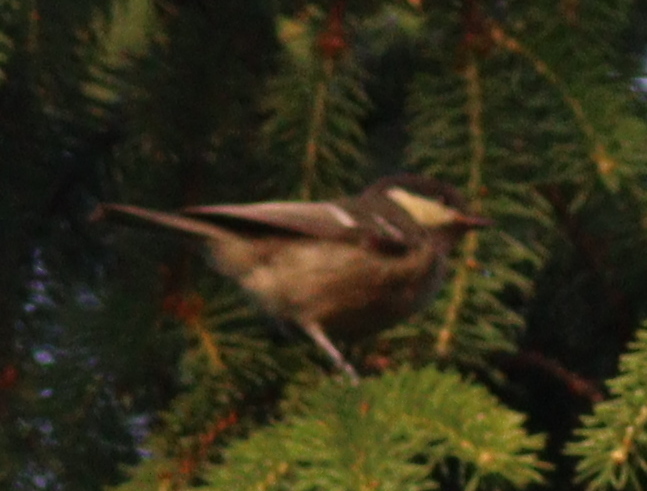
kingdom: Animalia
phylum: Chordata
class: Aves
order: Passeriformes
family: Paridae
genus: Periparus
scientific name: Periparus ater
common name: Coal tit
